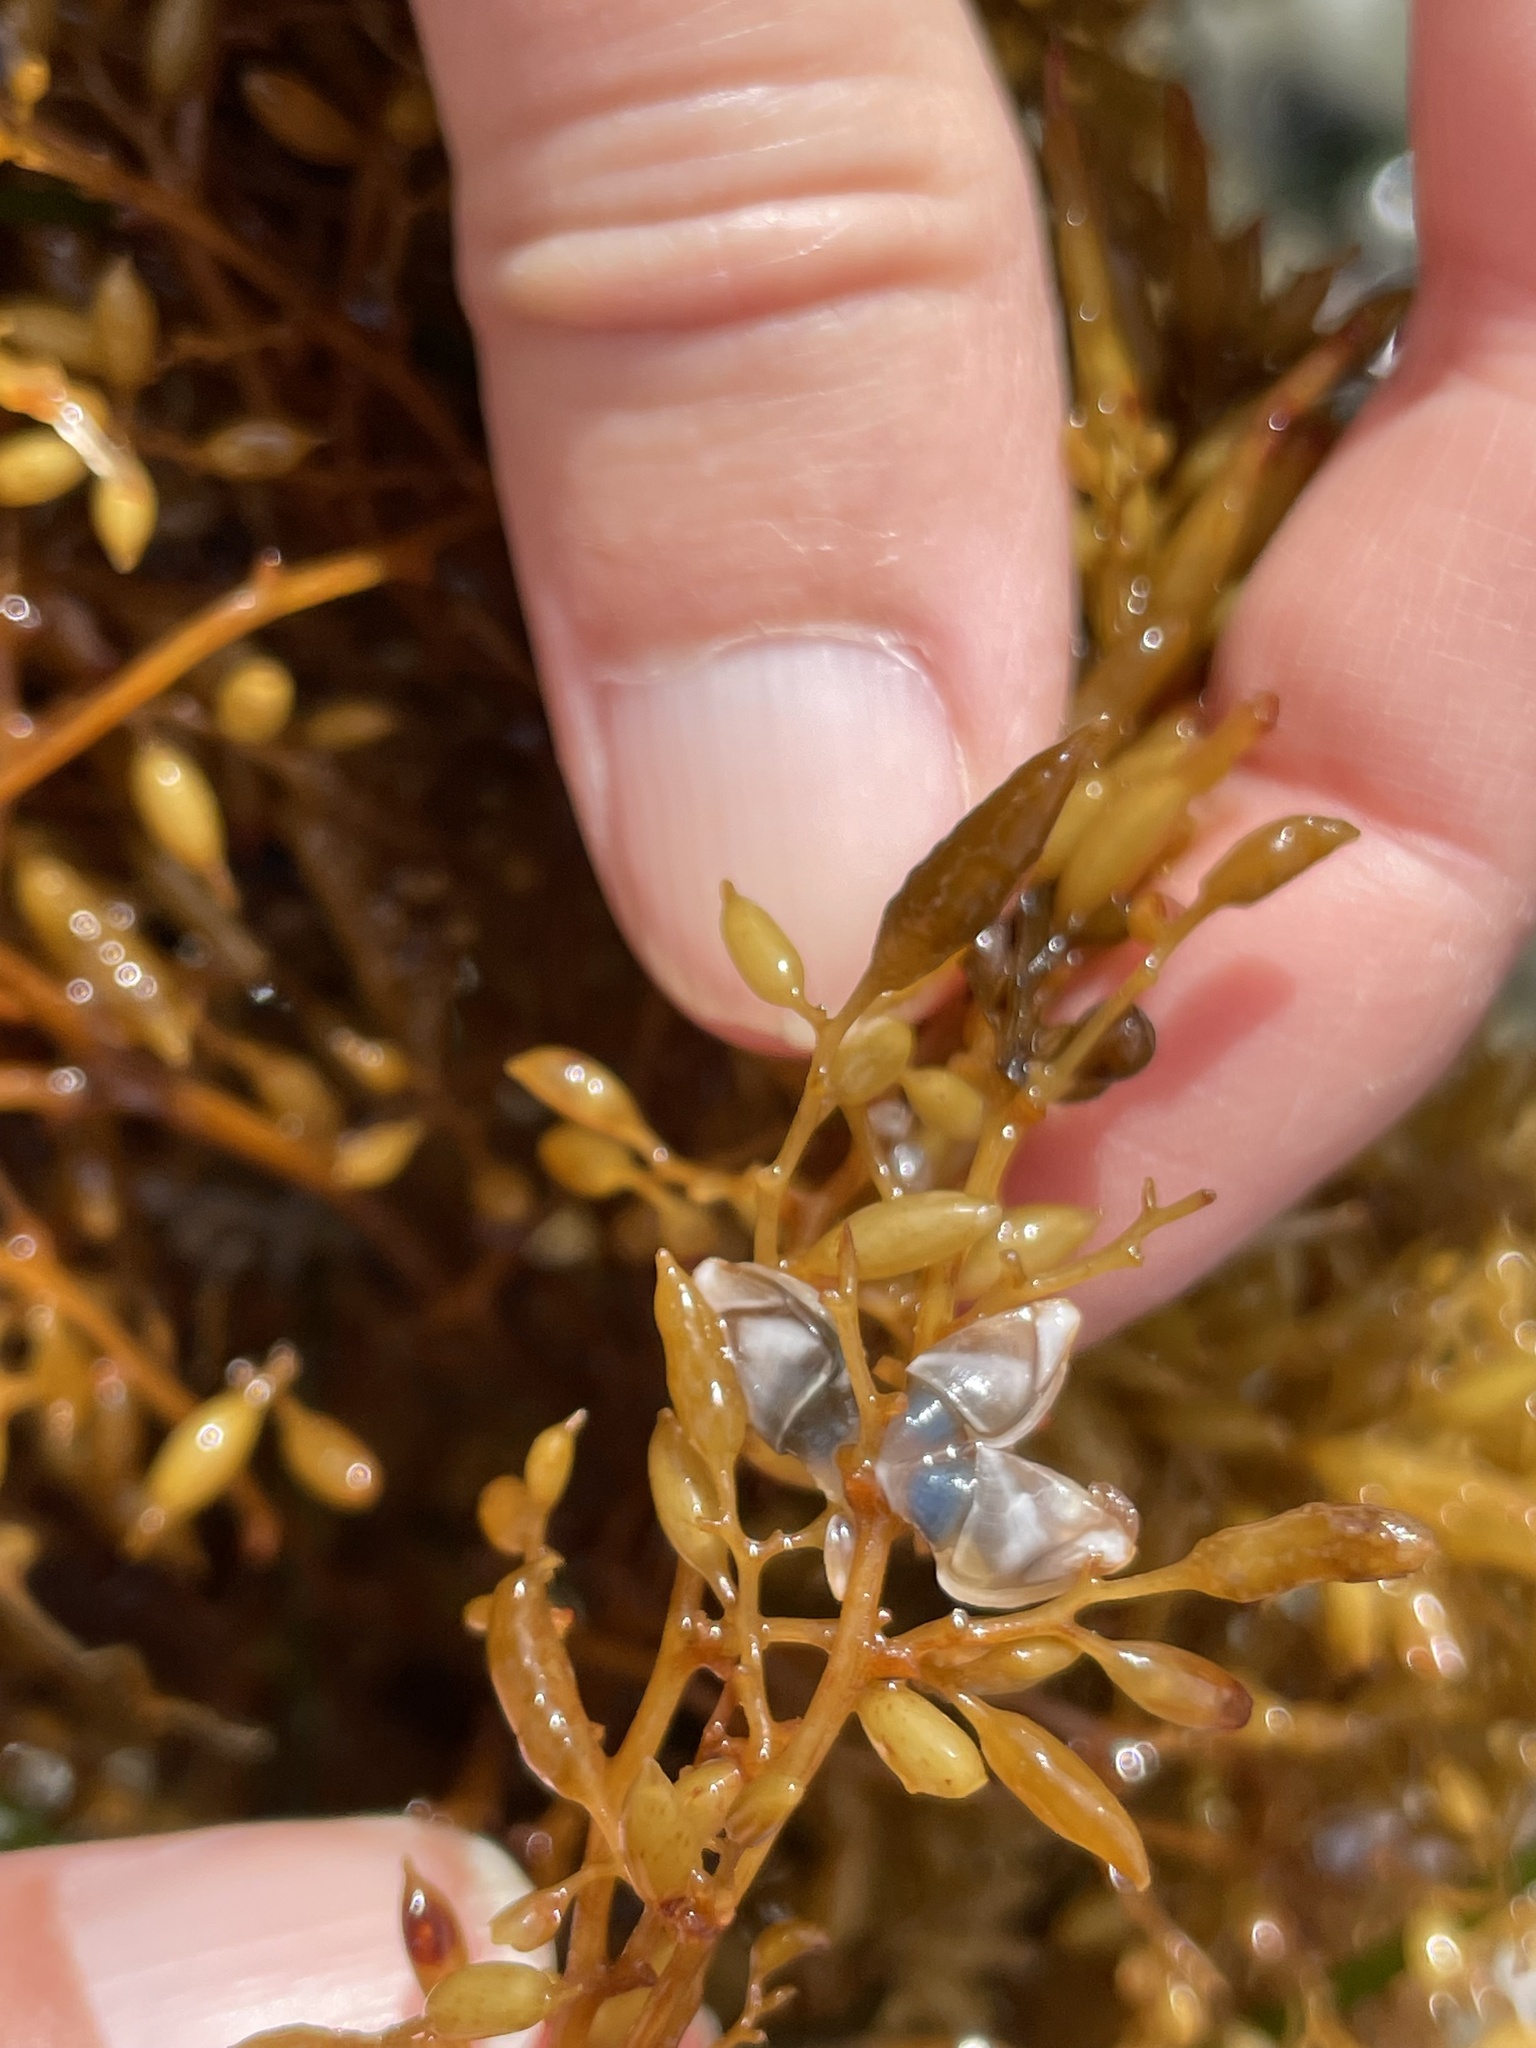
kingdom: Animalia
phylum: Arthropoda
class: Maxillopoda
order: Pedunculata
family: Pollicipedidae
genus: Pollicipes
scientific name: Pollicipes polymerus
